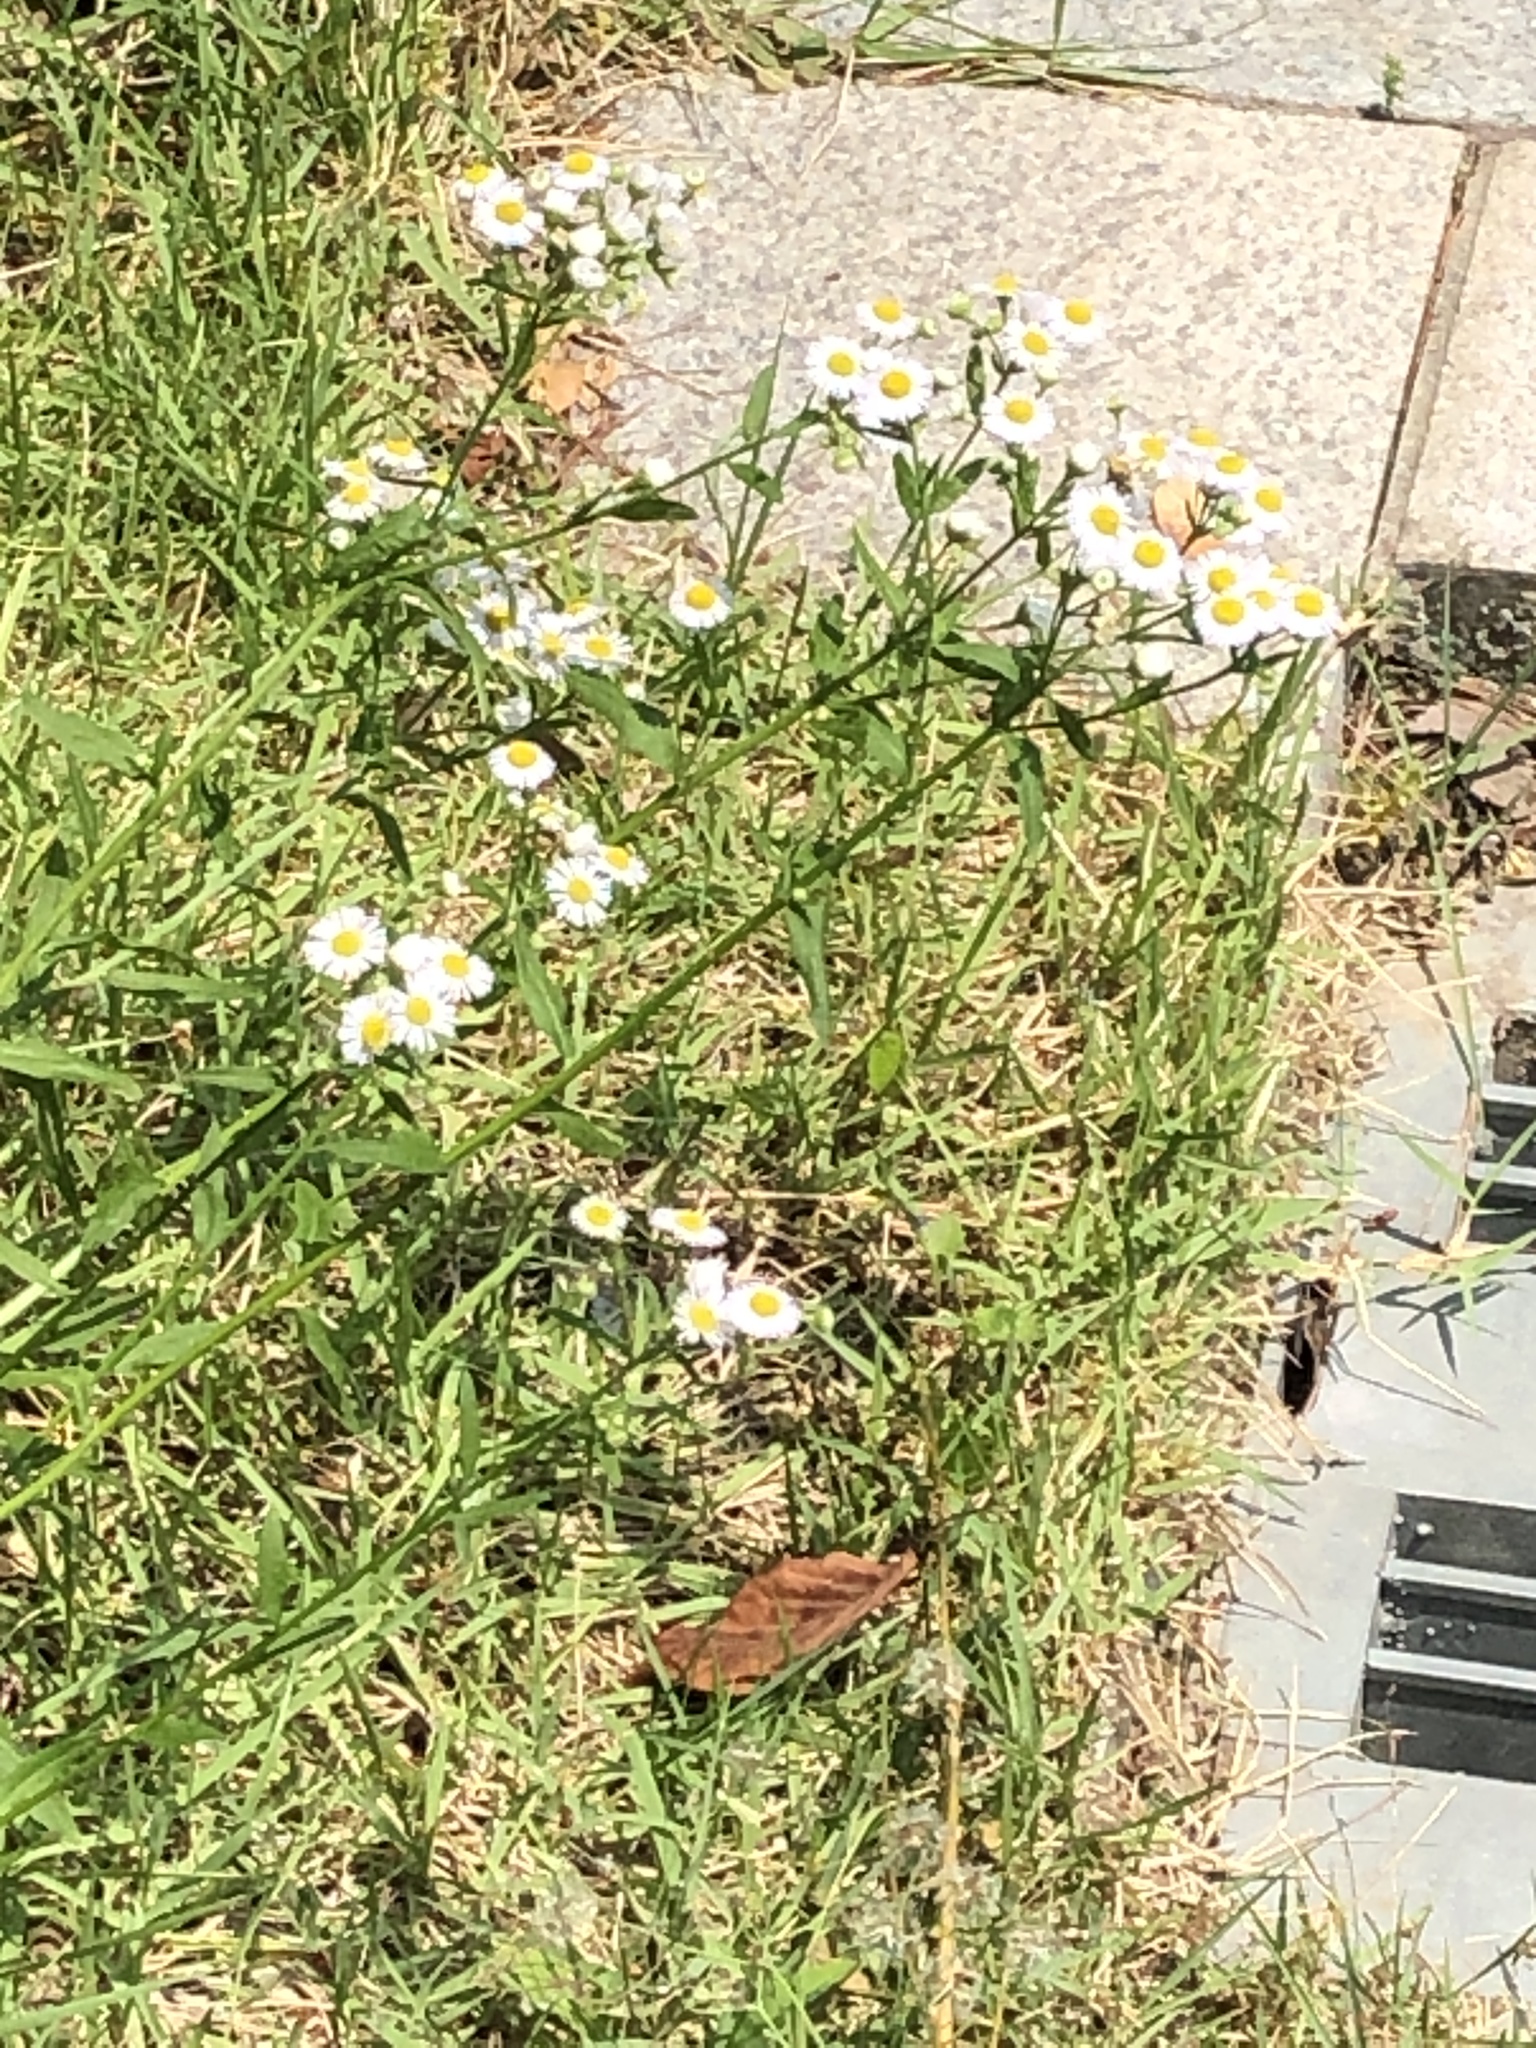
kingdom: Plantae
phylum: Tracheophyta
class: Magnoliopsida
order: Asterales
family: Asteraceae
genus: Erigeron
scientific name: Erigeron annuus
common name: Tall fleabane
